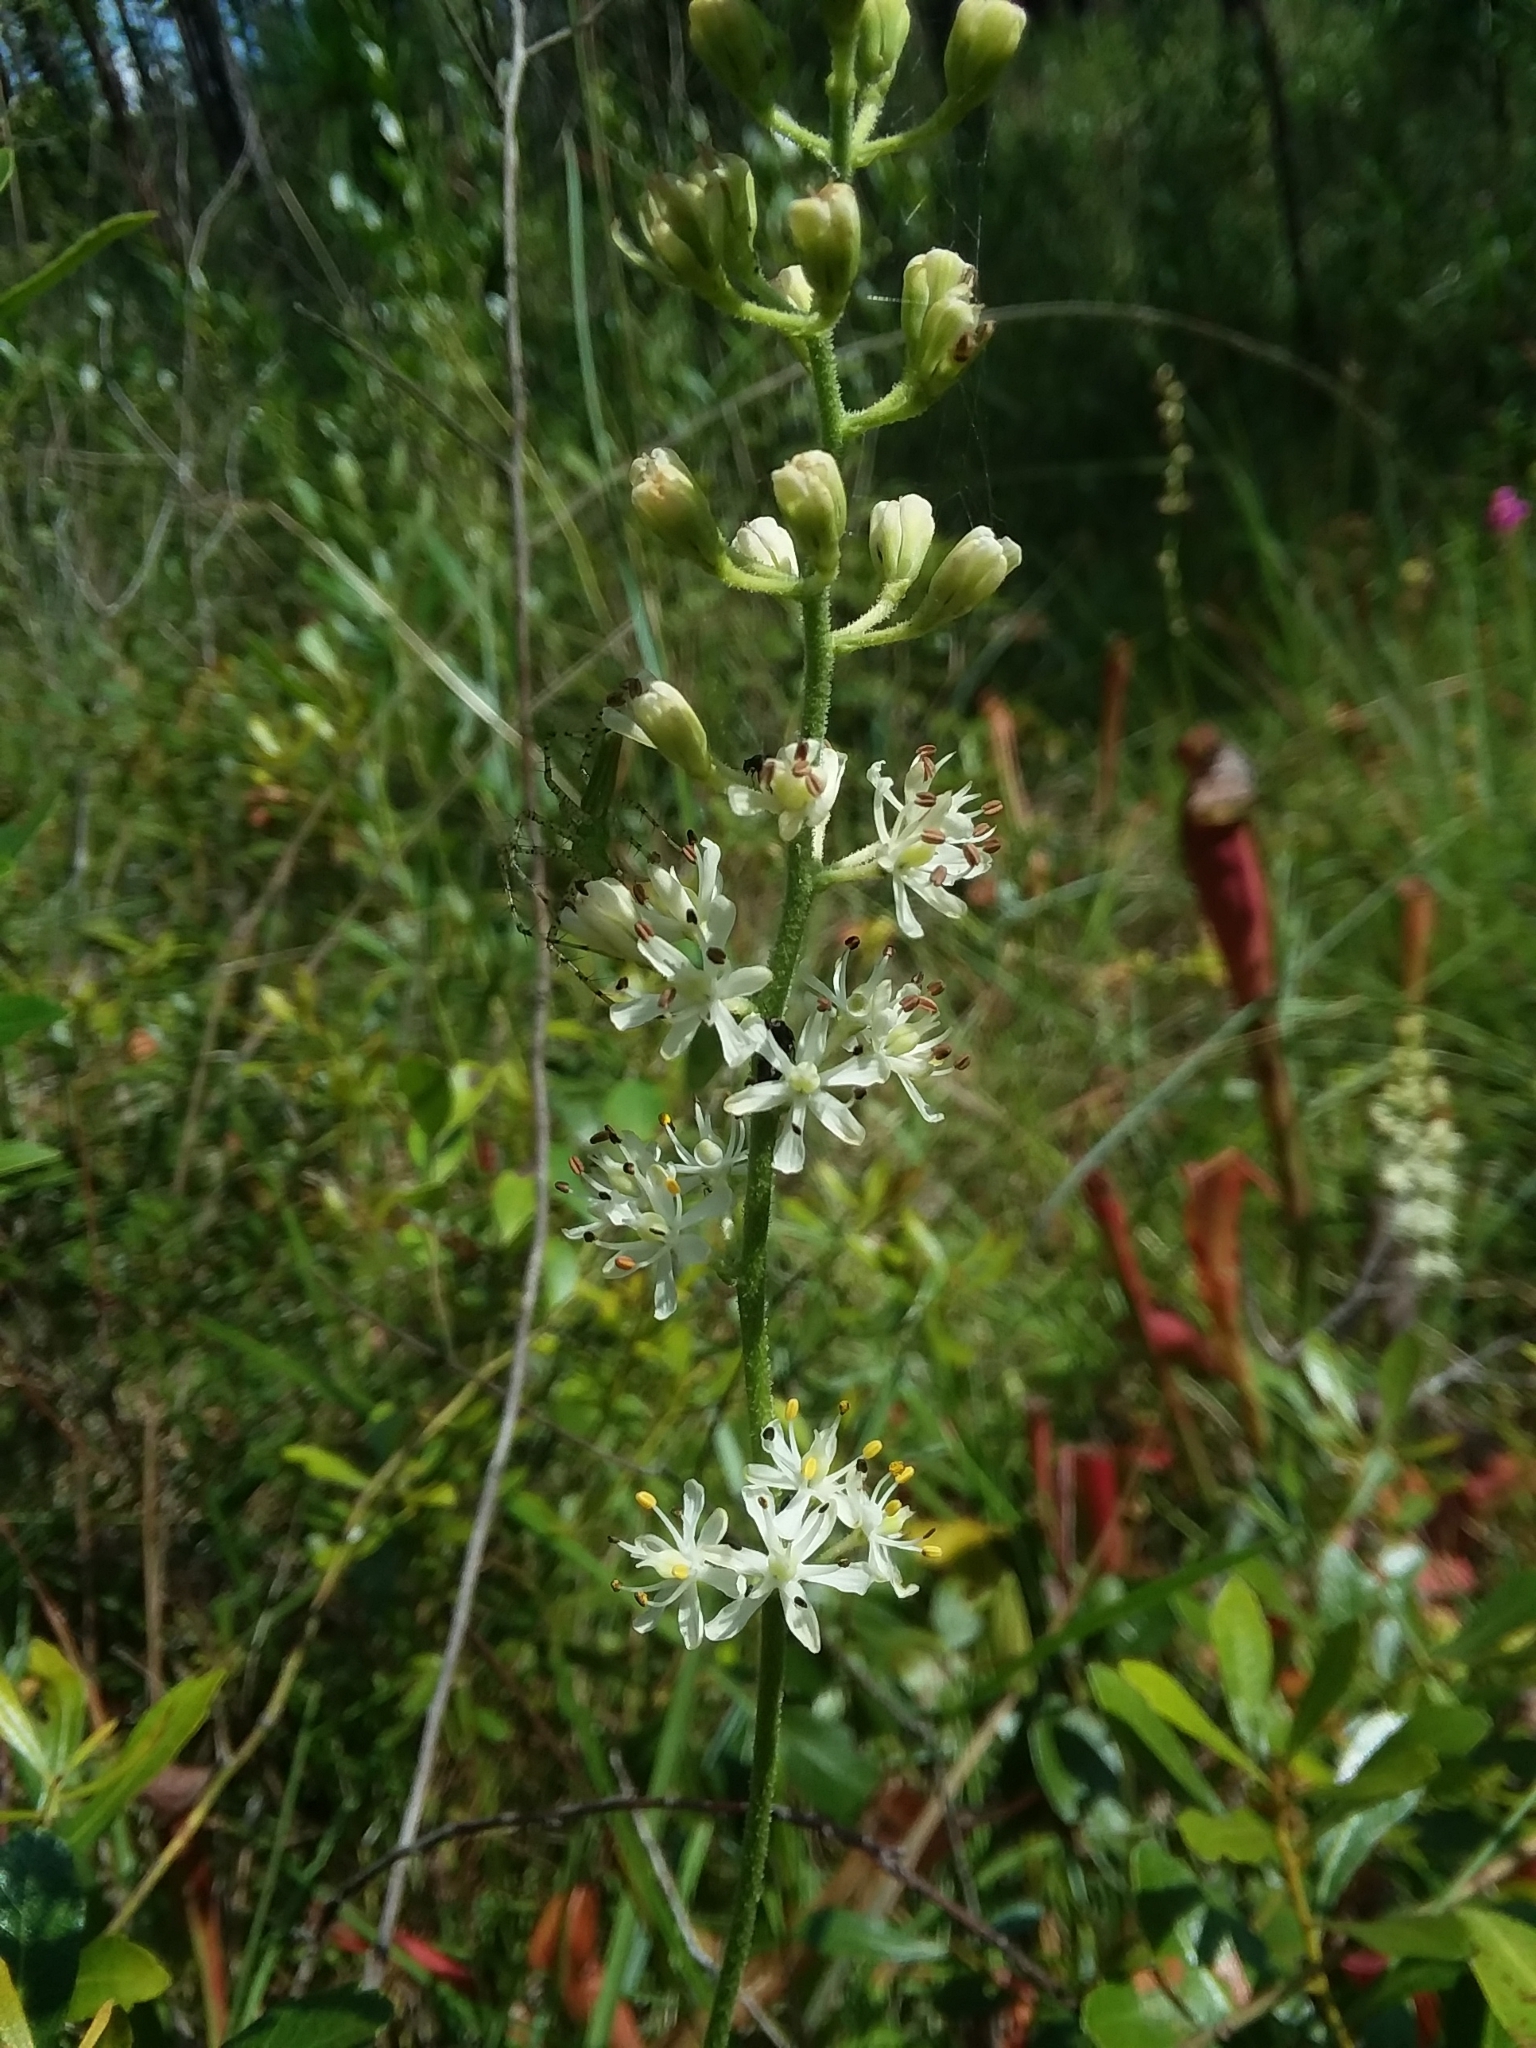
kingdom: Plantae
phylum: Tracheophyta
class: Liliopsida
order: Alismatales
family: Tofieldiaceae
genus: Triantha
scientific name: Triantha racemosa
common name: Coastal false asphodel
